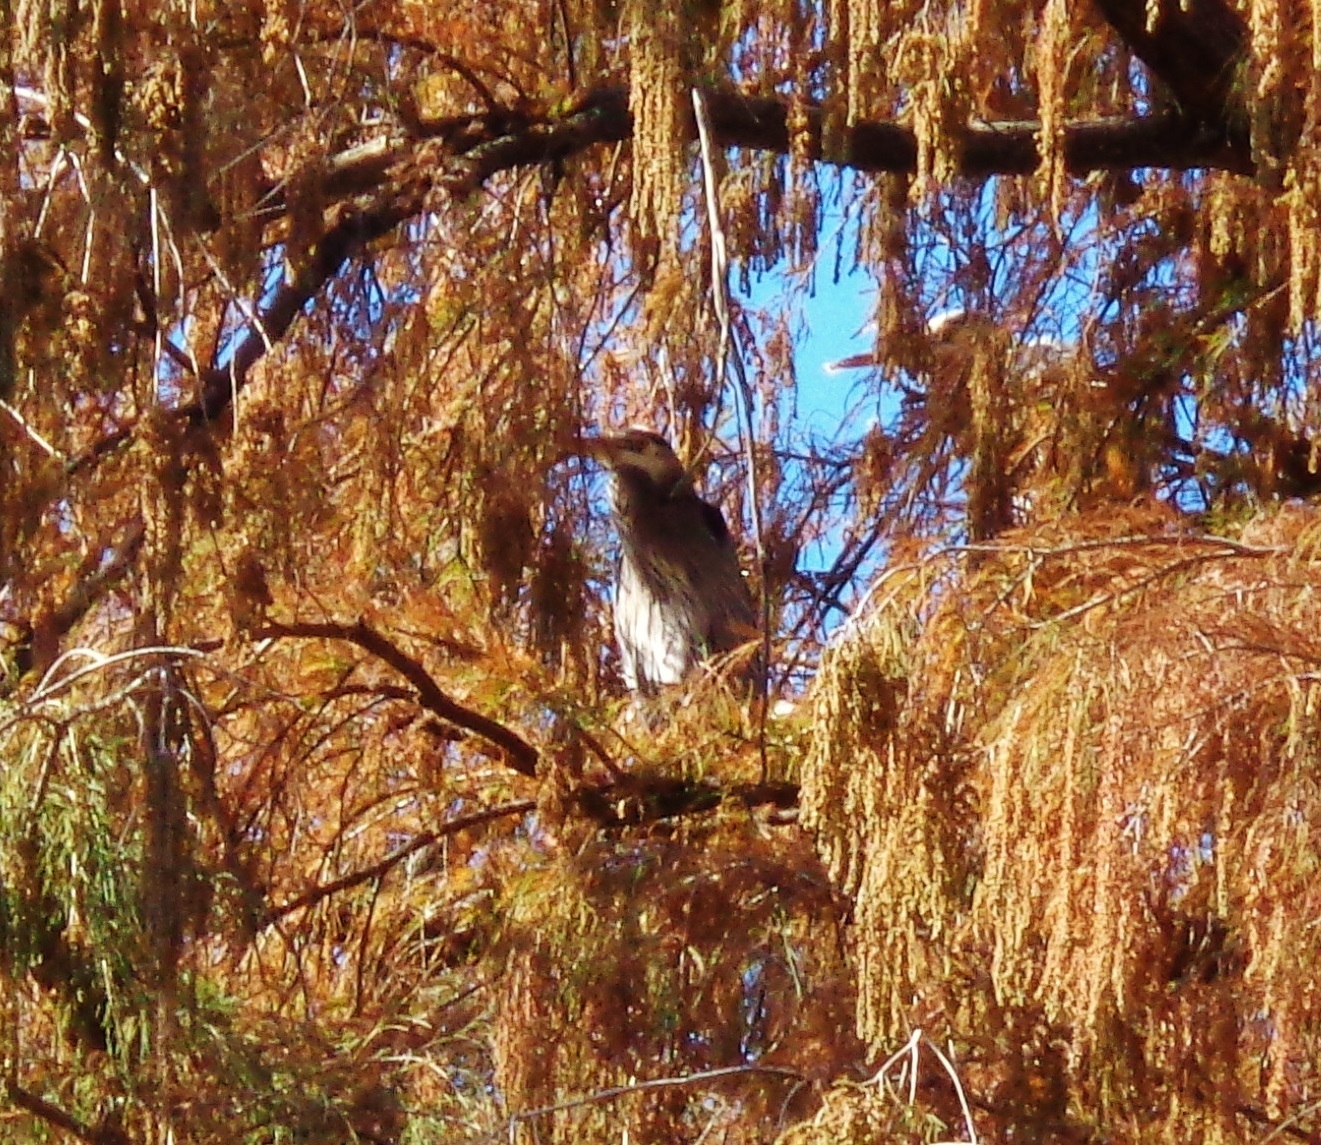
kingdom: Animalia
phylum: Chordata
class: Aves
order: Pelecaniformes
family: Ardeidae
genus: Ardea
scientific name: Ardea herodias
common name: Great blue heron
